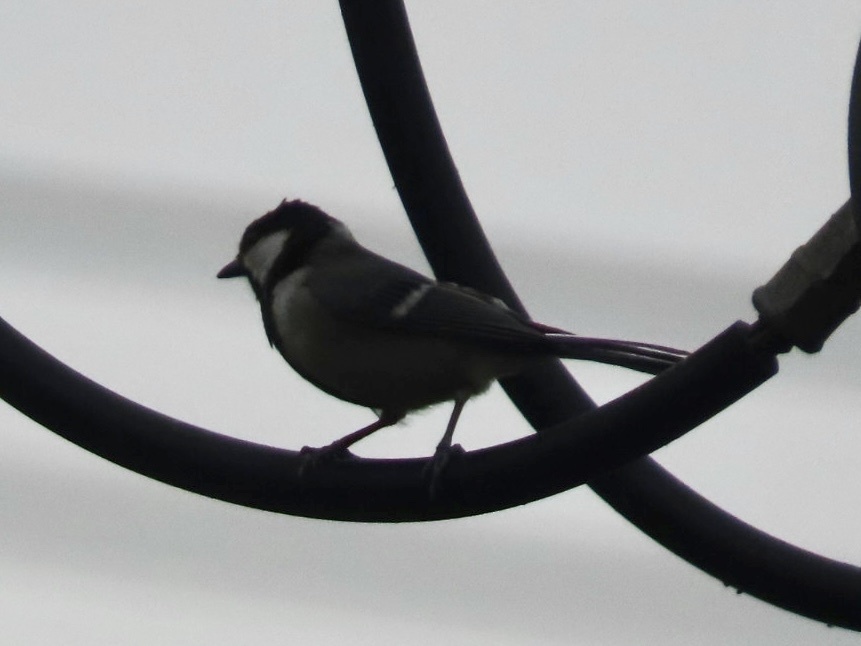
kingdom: Animalia
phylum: Chordata
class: Aves
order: Passeriformes
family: Paridae
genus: Parus
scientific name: Parus minor
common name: Japanese tit
